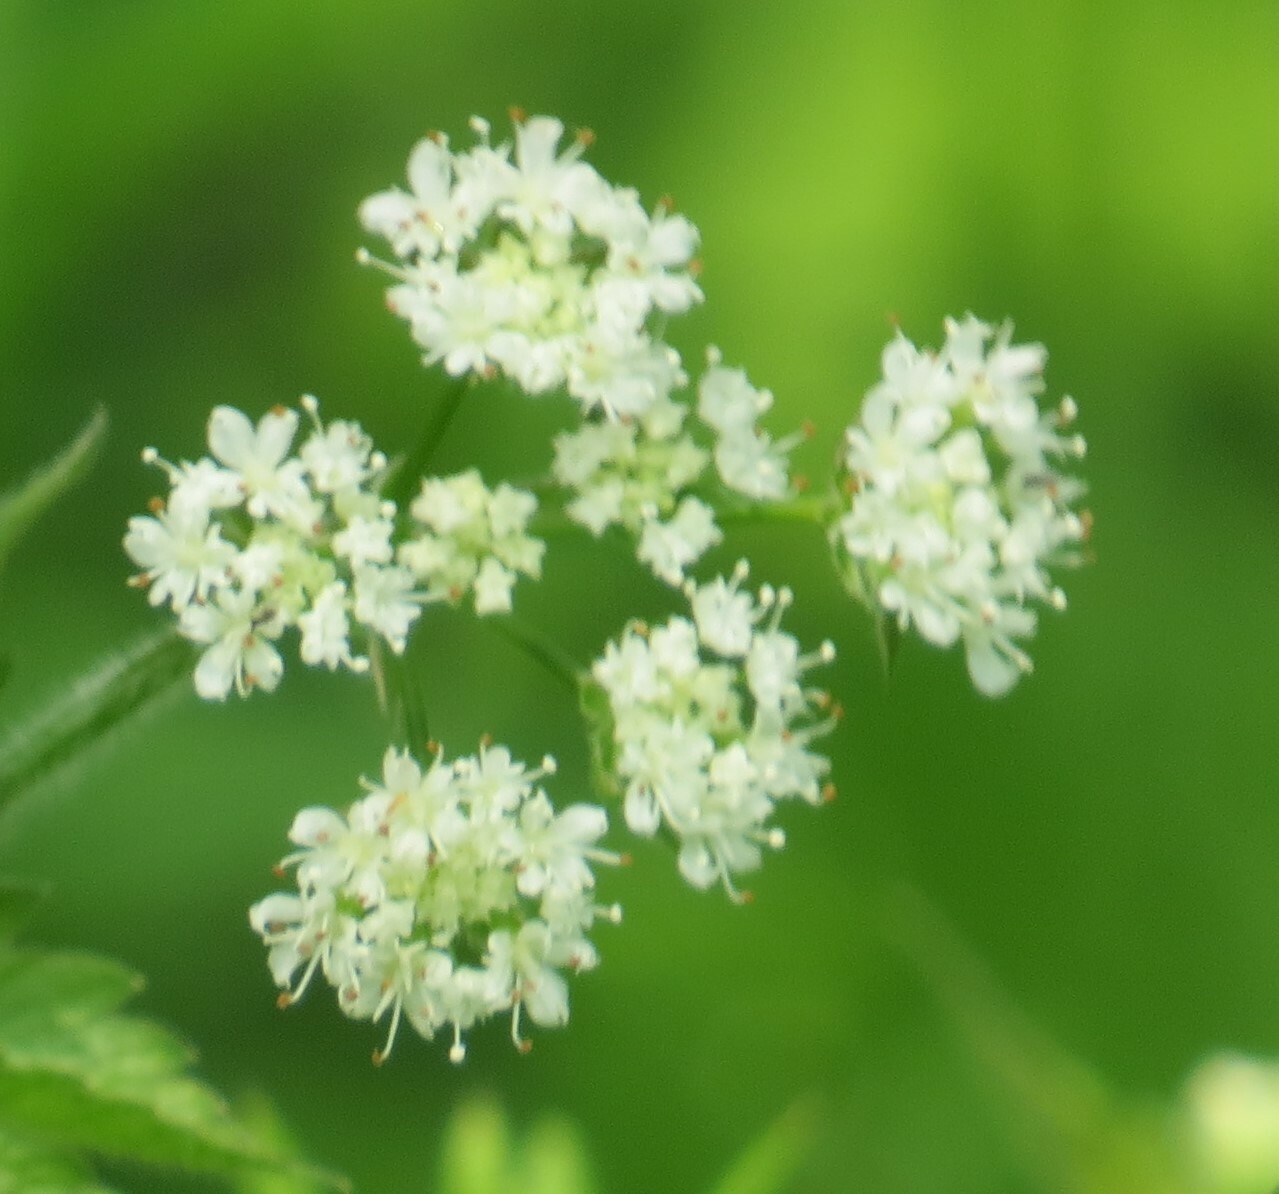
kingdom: Plantae
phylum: Tracheophyta
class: Magnoliopsida
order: Apiales
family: Apiaceae
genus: Osmorhiza
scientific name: Osmorhiza longistylis
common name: Smooth sweet cicely
